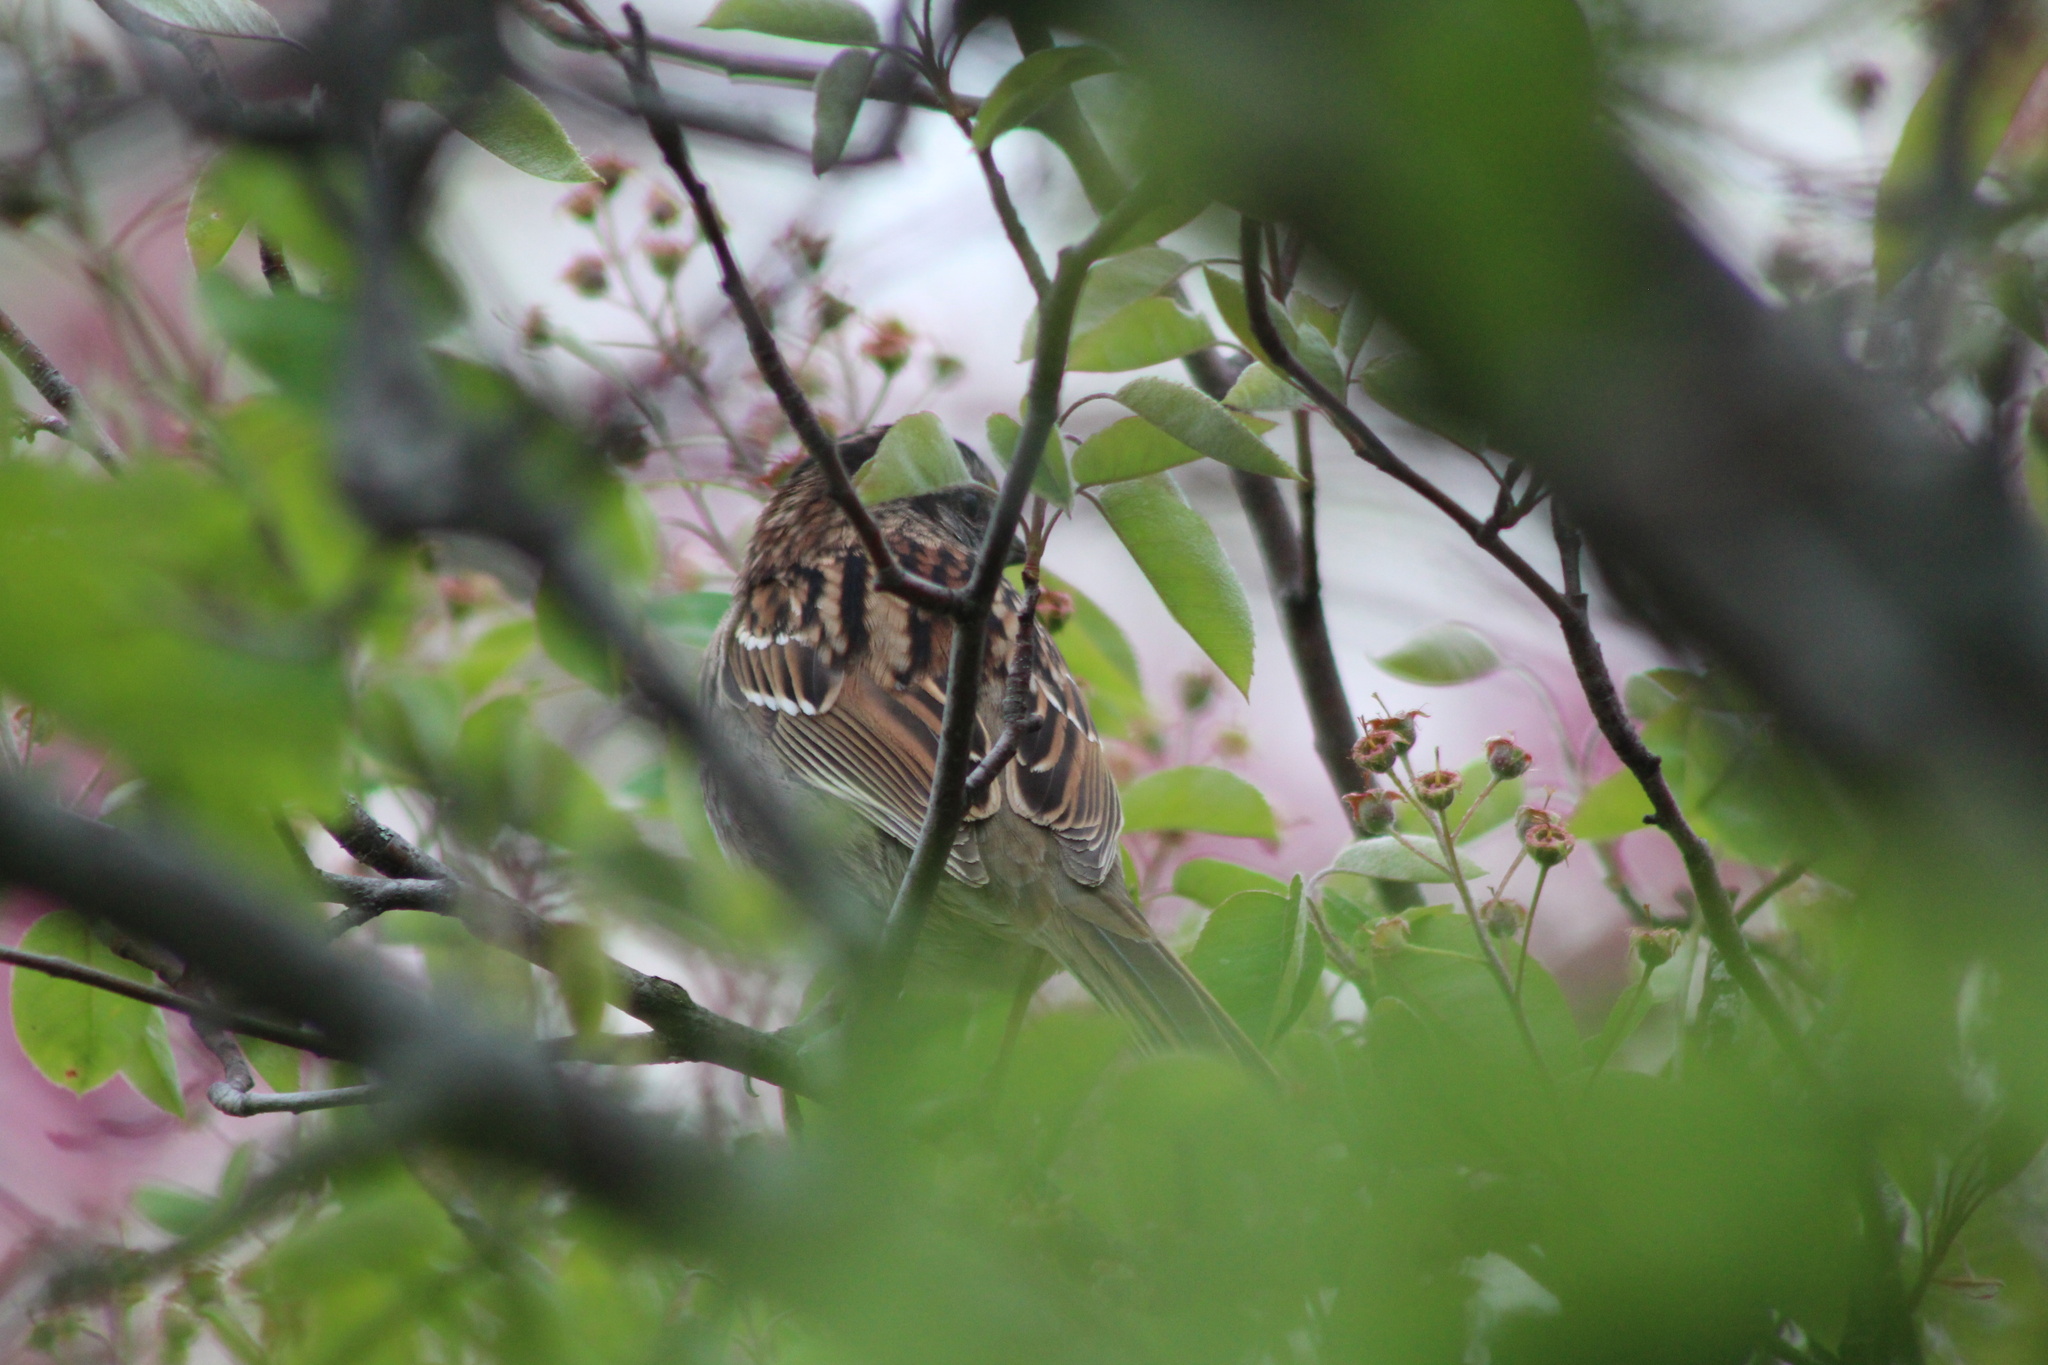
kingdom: Animalia
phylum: Chordata
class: Aves
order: Passeriformes
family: Passerellidae
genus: Zonotrichia
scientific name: Zonotrichia albicollis
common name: White-throated sparrow
